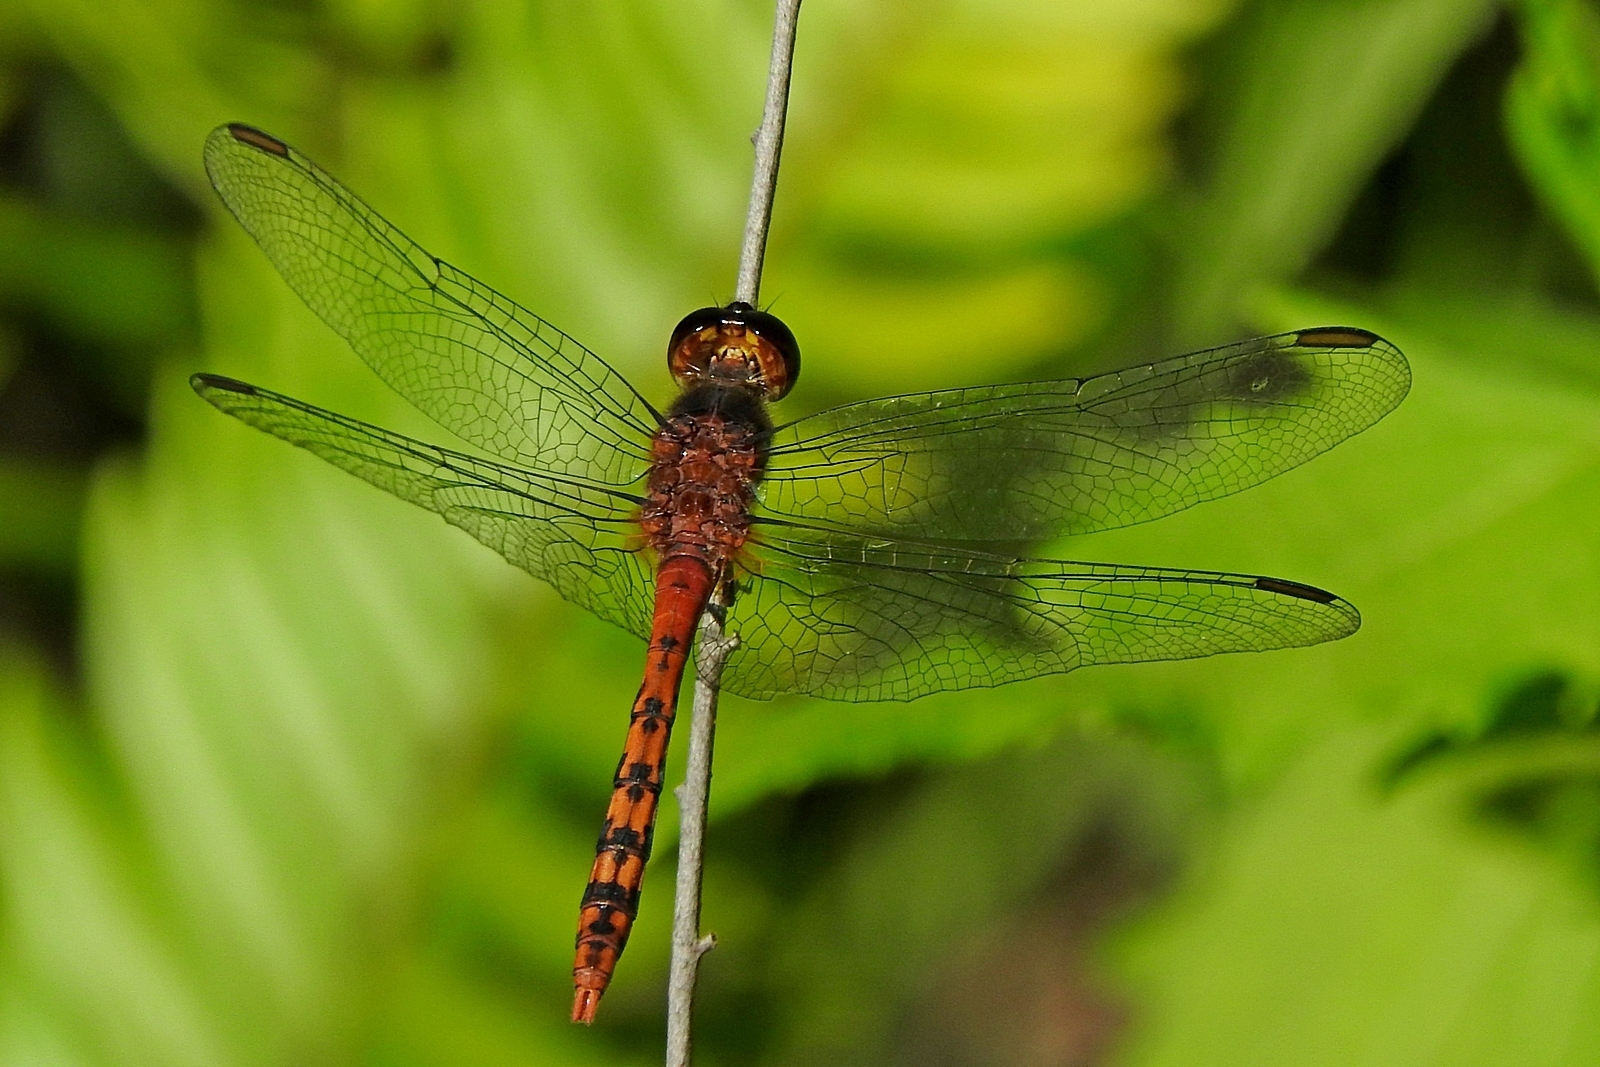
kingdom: Animalia
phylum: Arthropoda
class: Insecta
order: Odonata
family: Libellulidae
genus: Diplacodes
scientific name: Diplacodes melanopsis
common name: Black-faced percher
